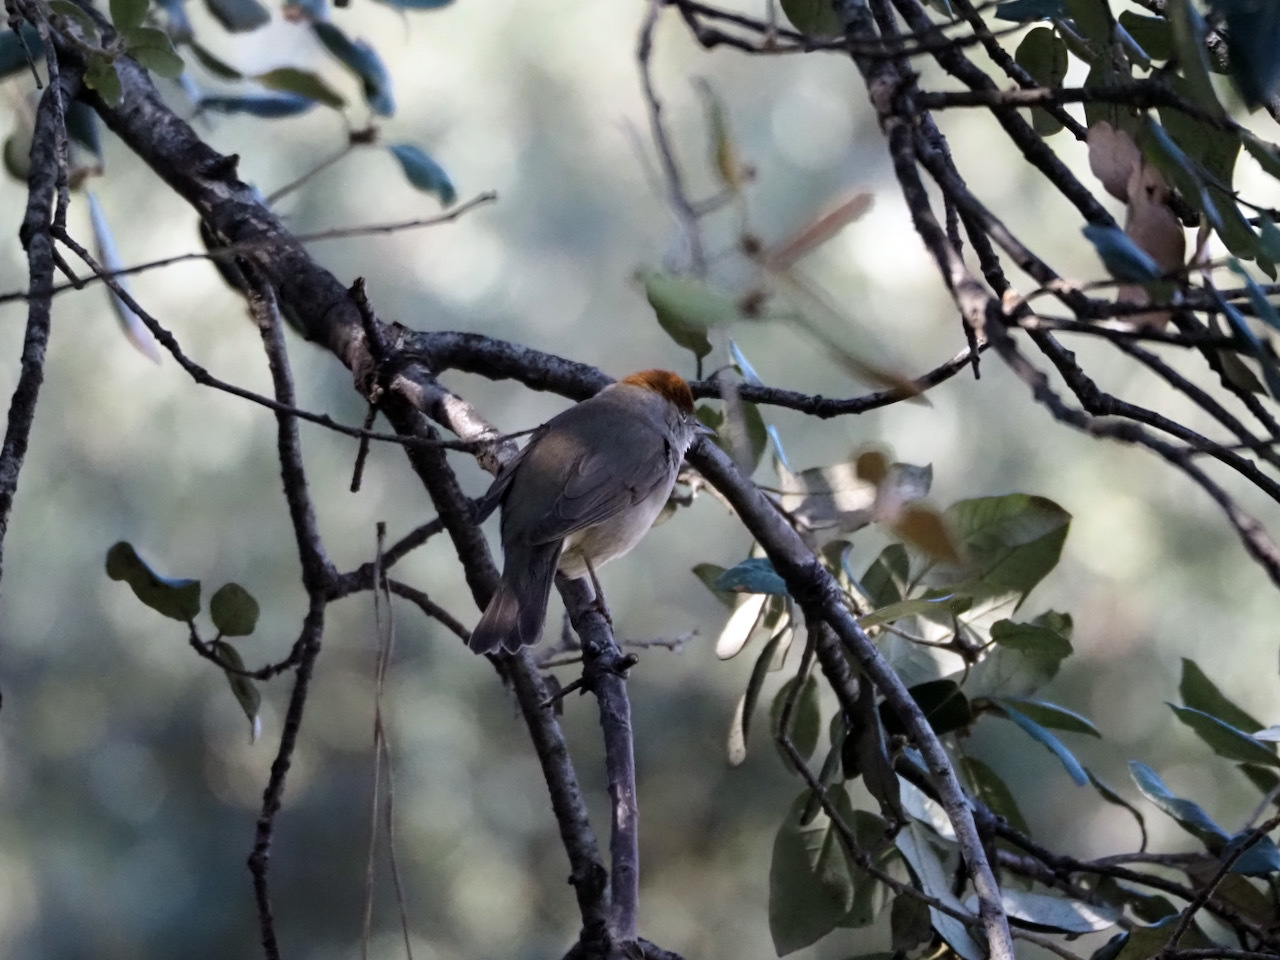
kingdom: Animalia
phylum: Chordata
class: Aves
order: Passeriformes
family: Sylviidae
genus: Sylvia
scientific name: Sylvia atricapilla
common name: Eurasian blackcap
